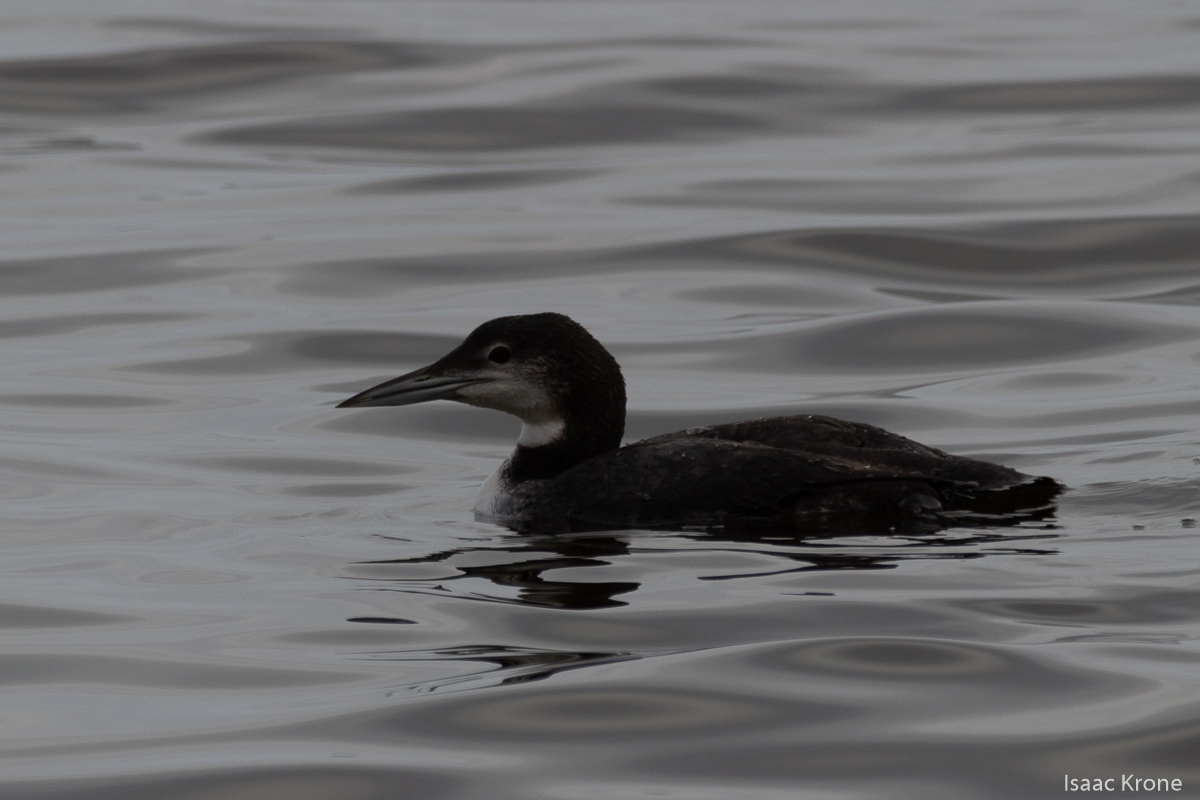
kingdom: Animalia
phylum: Chordata
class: Aves
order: Gaviiformes
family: Gaviidae
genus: Gavia
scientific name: Gavia immer
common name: Common loon
